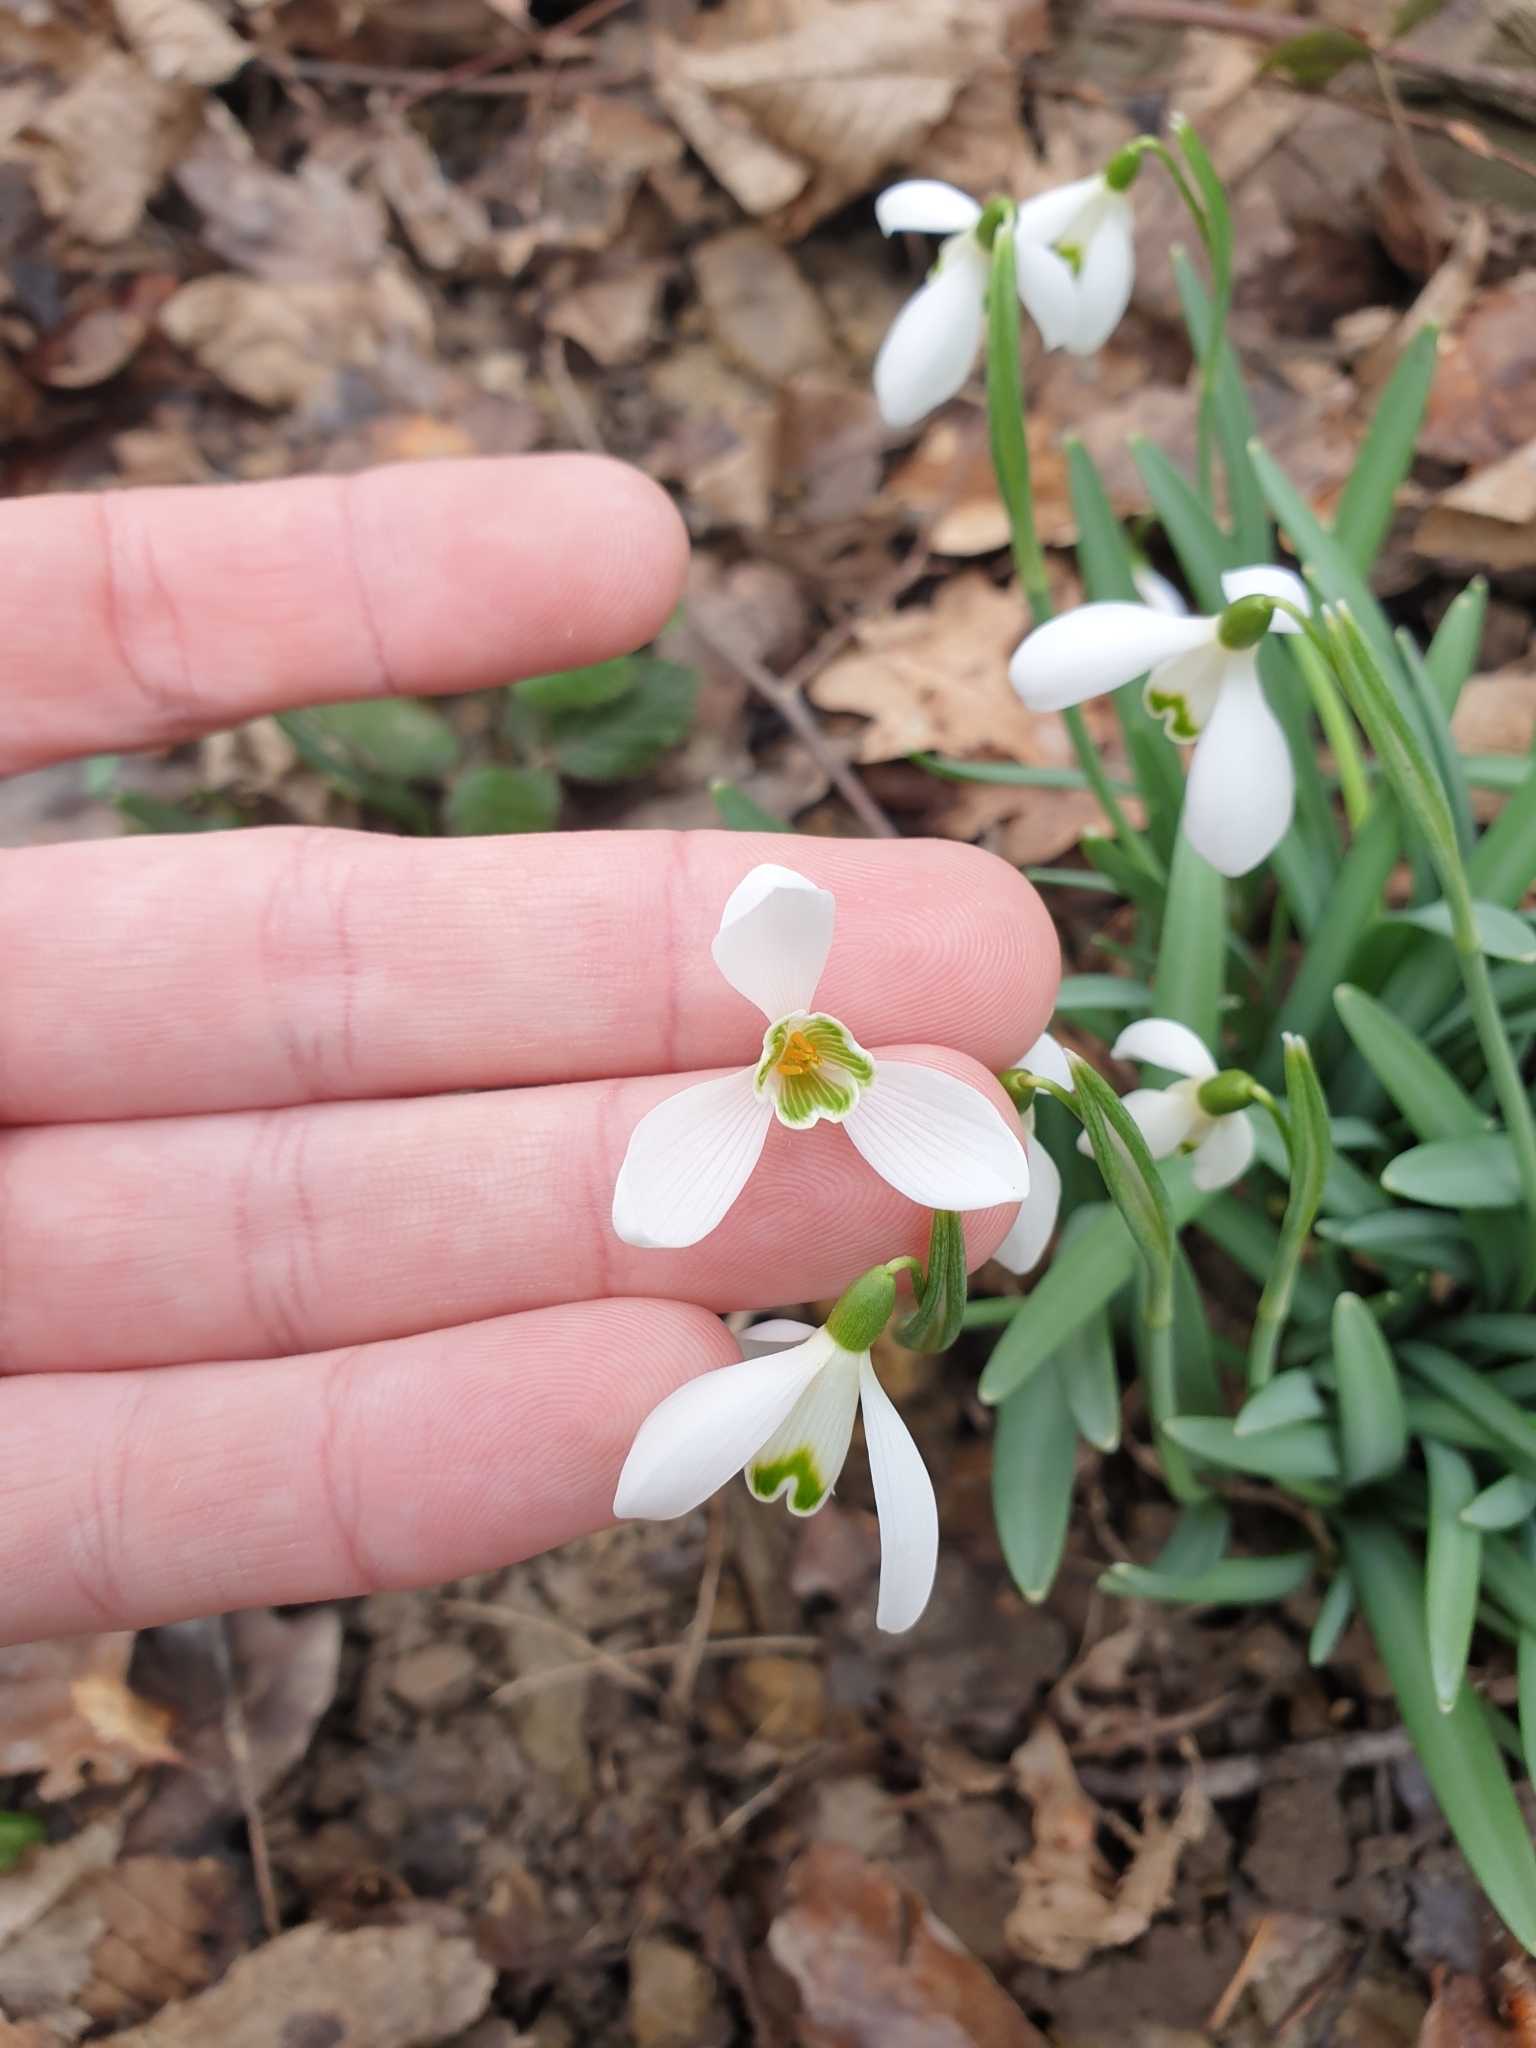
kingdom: Plantae
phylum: Tracheophyta
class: Liliopsida
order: Asparagales
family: Amaryllidaceae
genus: Galanthus
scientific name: Galanthus nivalis
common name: Snowdrop
